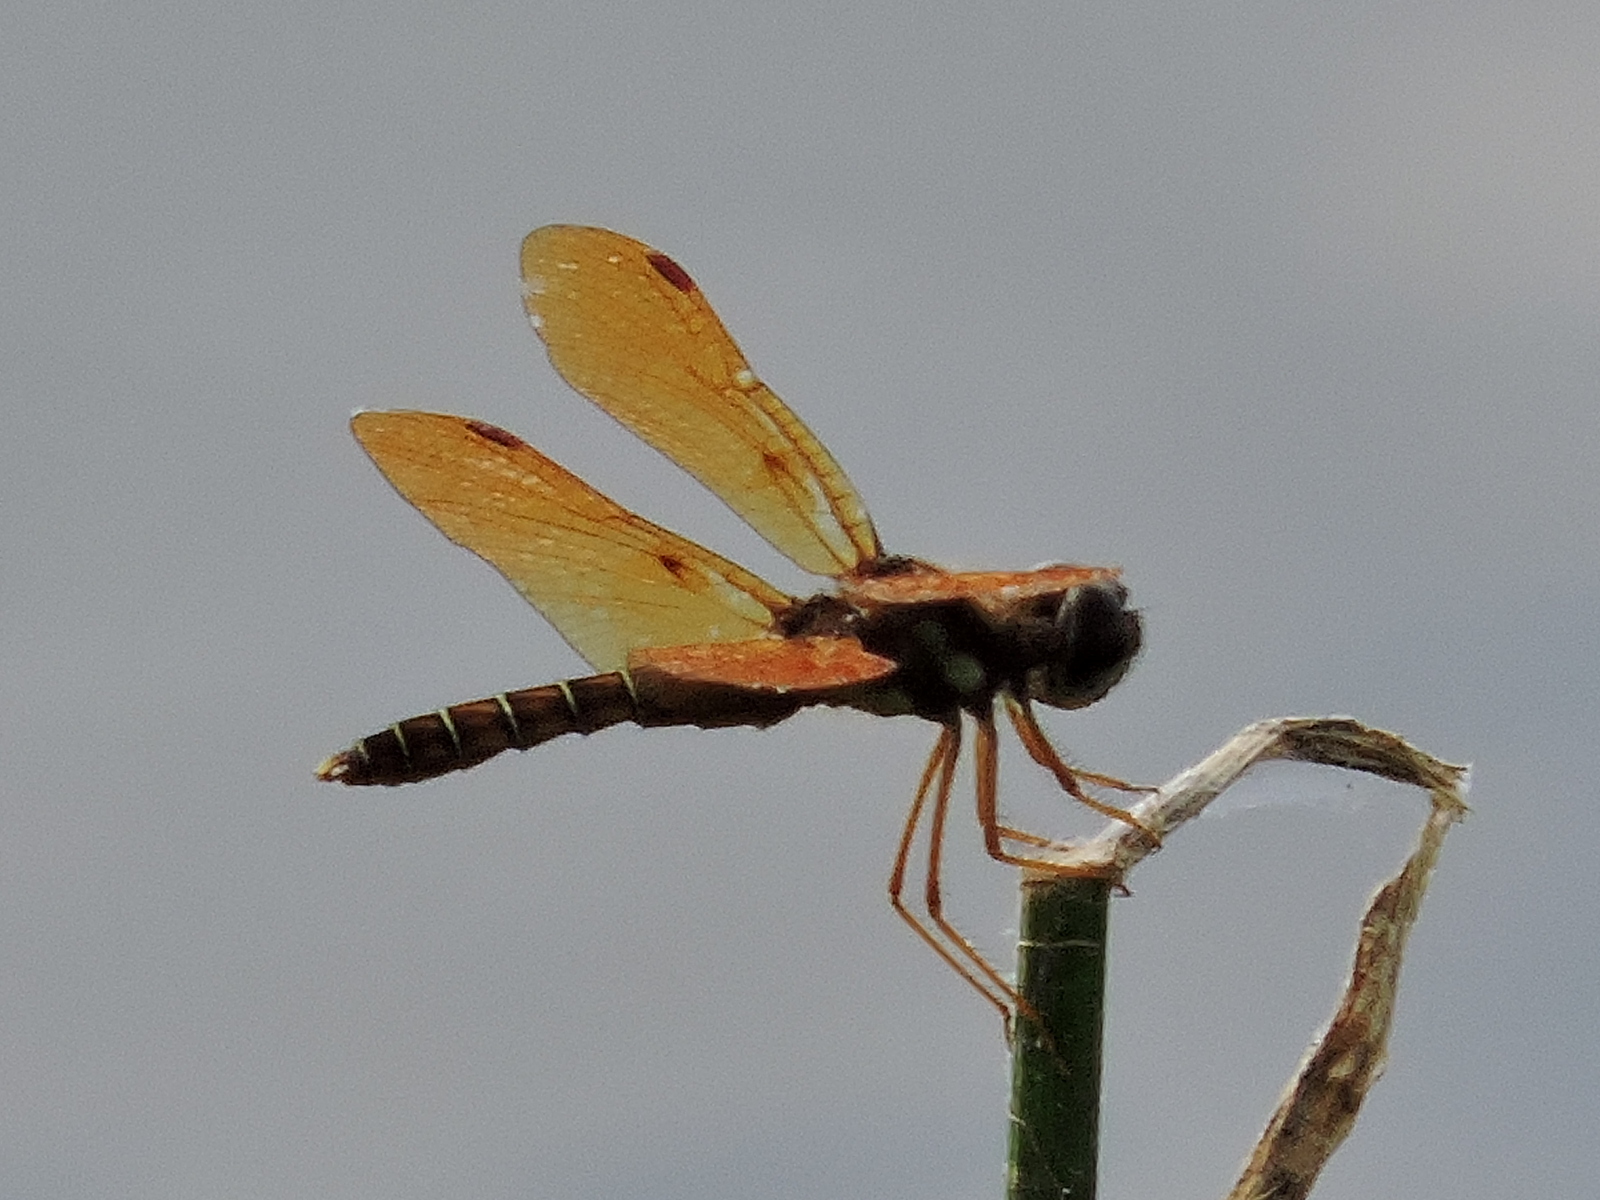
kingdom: Animalia
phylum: Arthropoda
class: Insecta
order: Odonata
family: Libellulidae
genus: Perithemis
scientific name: Perithemis tenera
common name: Eastern amberwing
